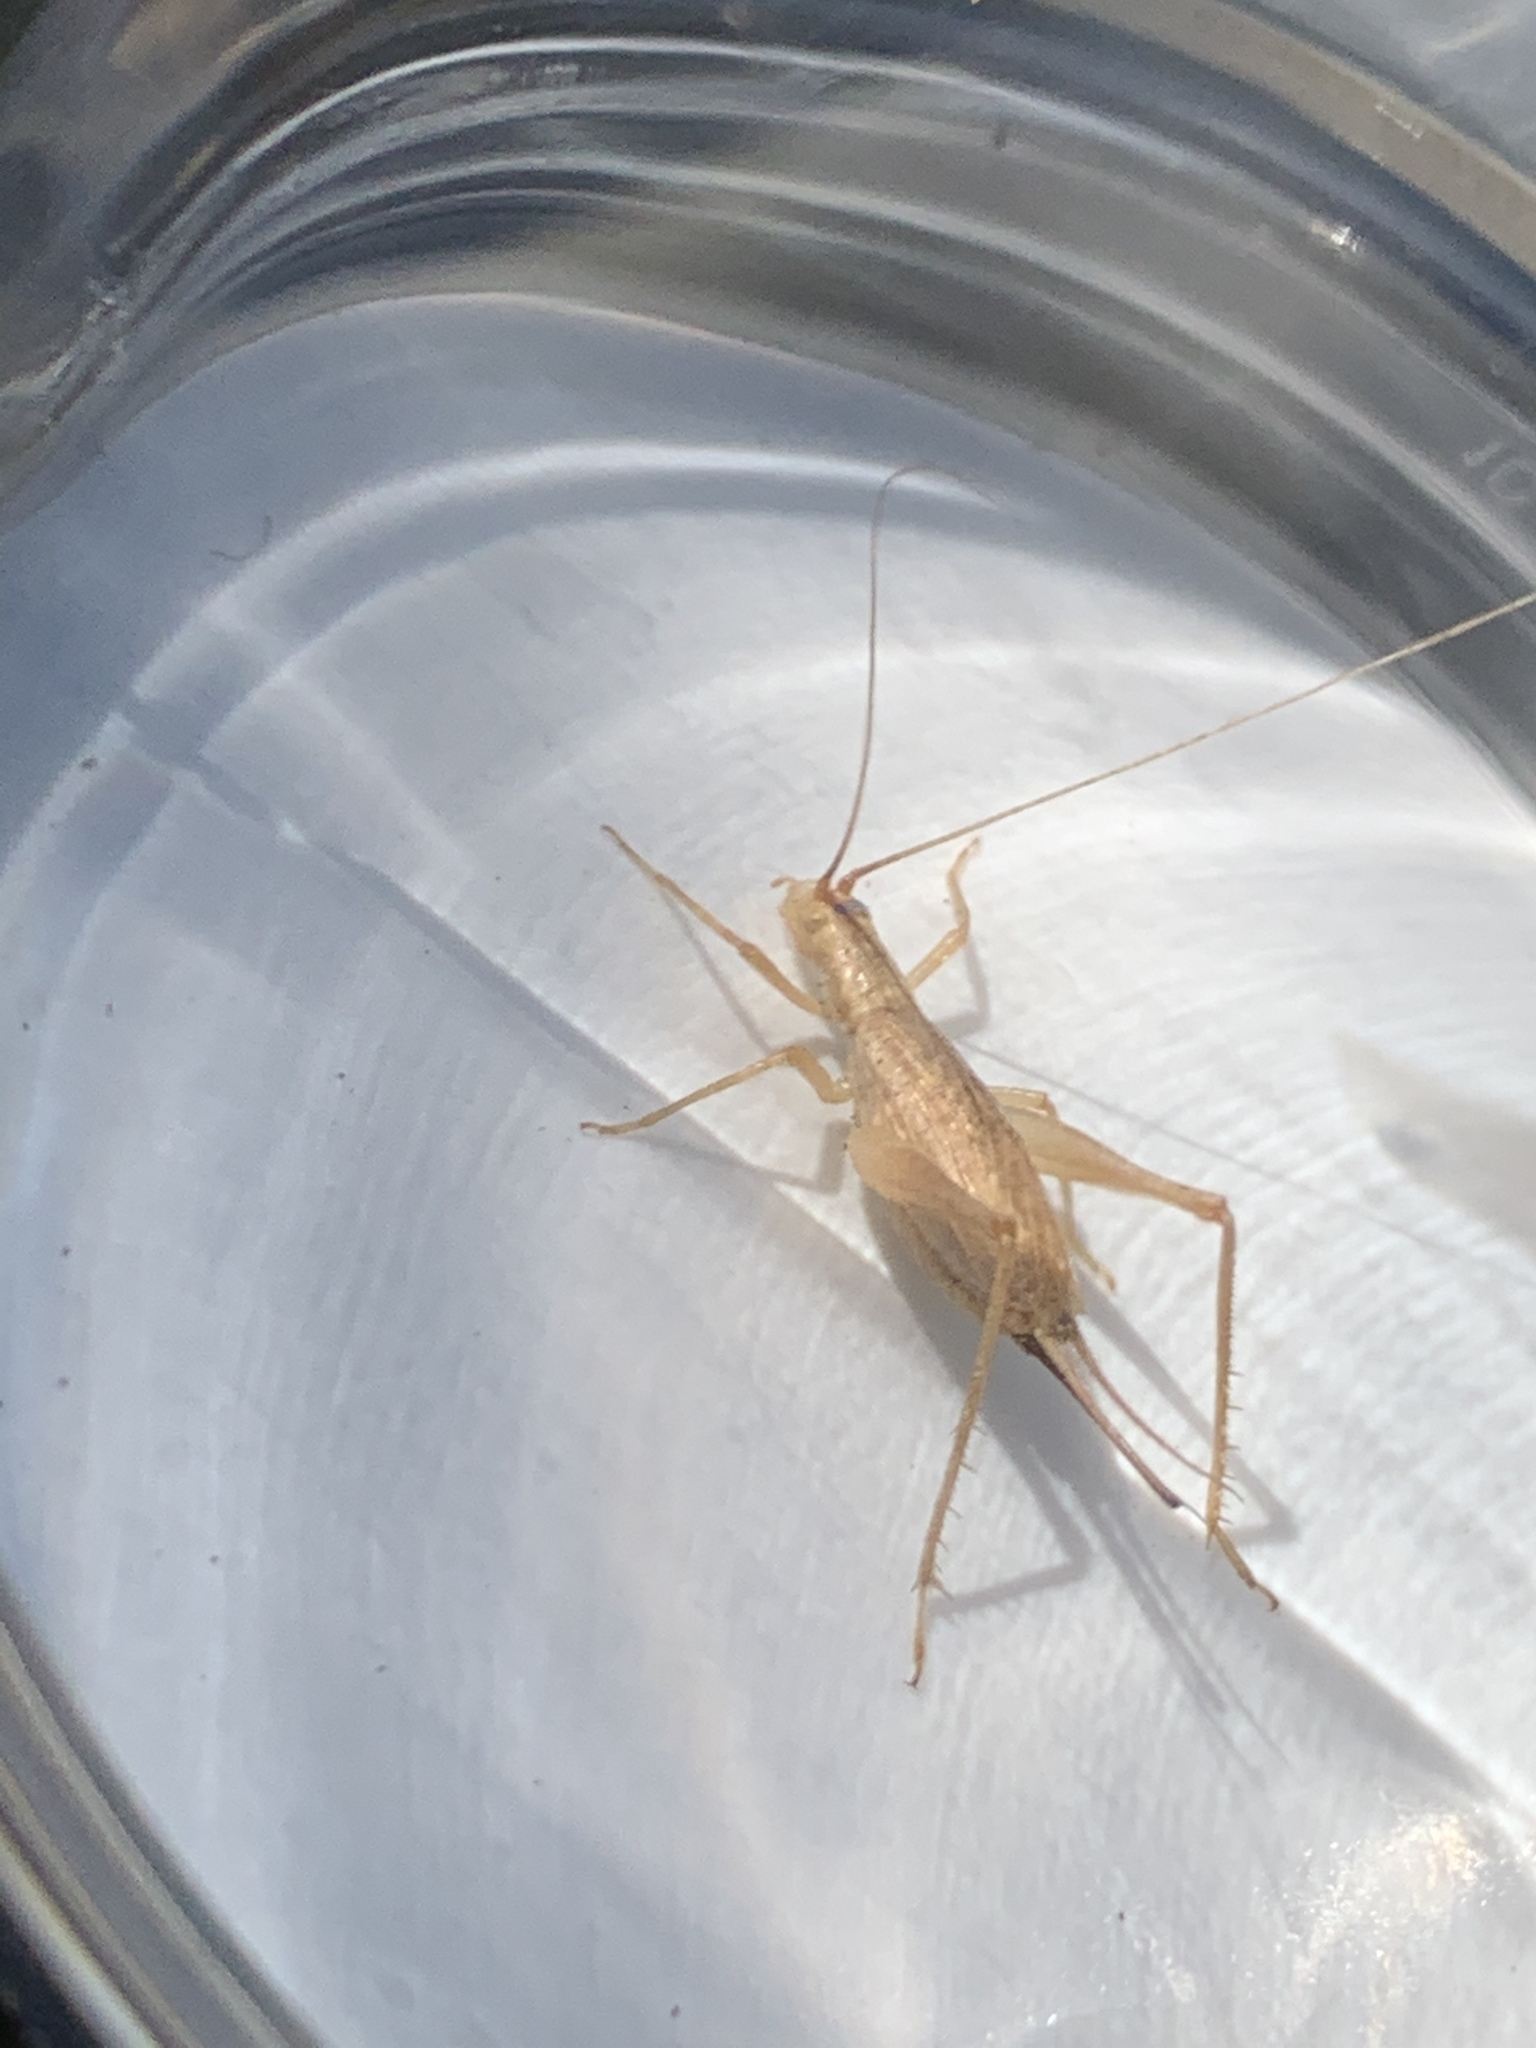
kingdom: Animalia
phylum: Arthropoda
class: Insecta
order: Orthoptera
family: Gryllidae
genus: Oecanthus
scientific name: Oecanthus californicus
